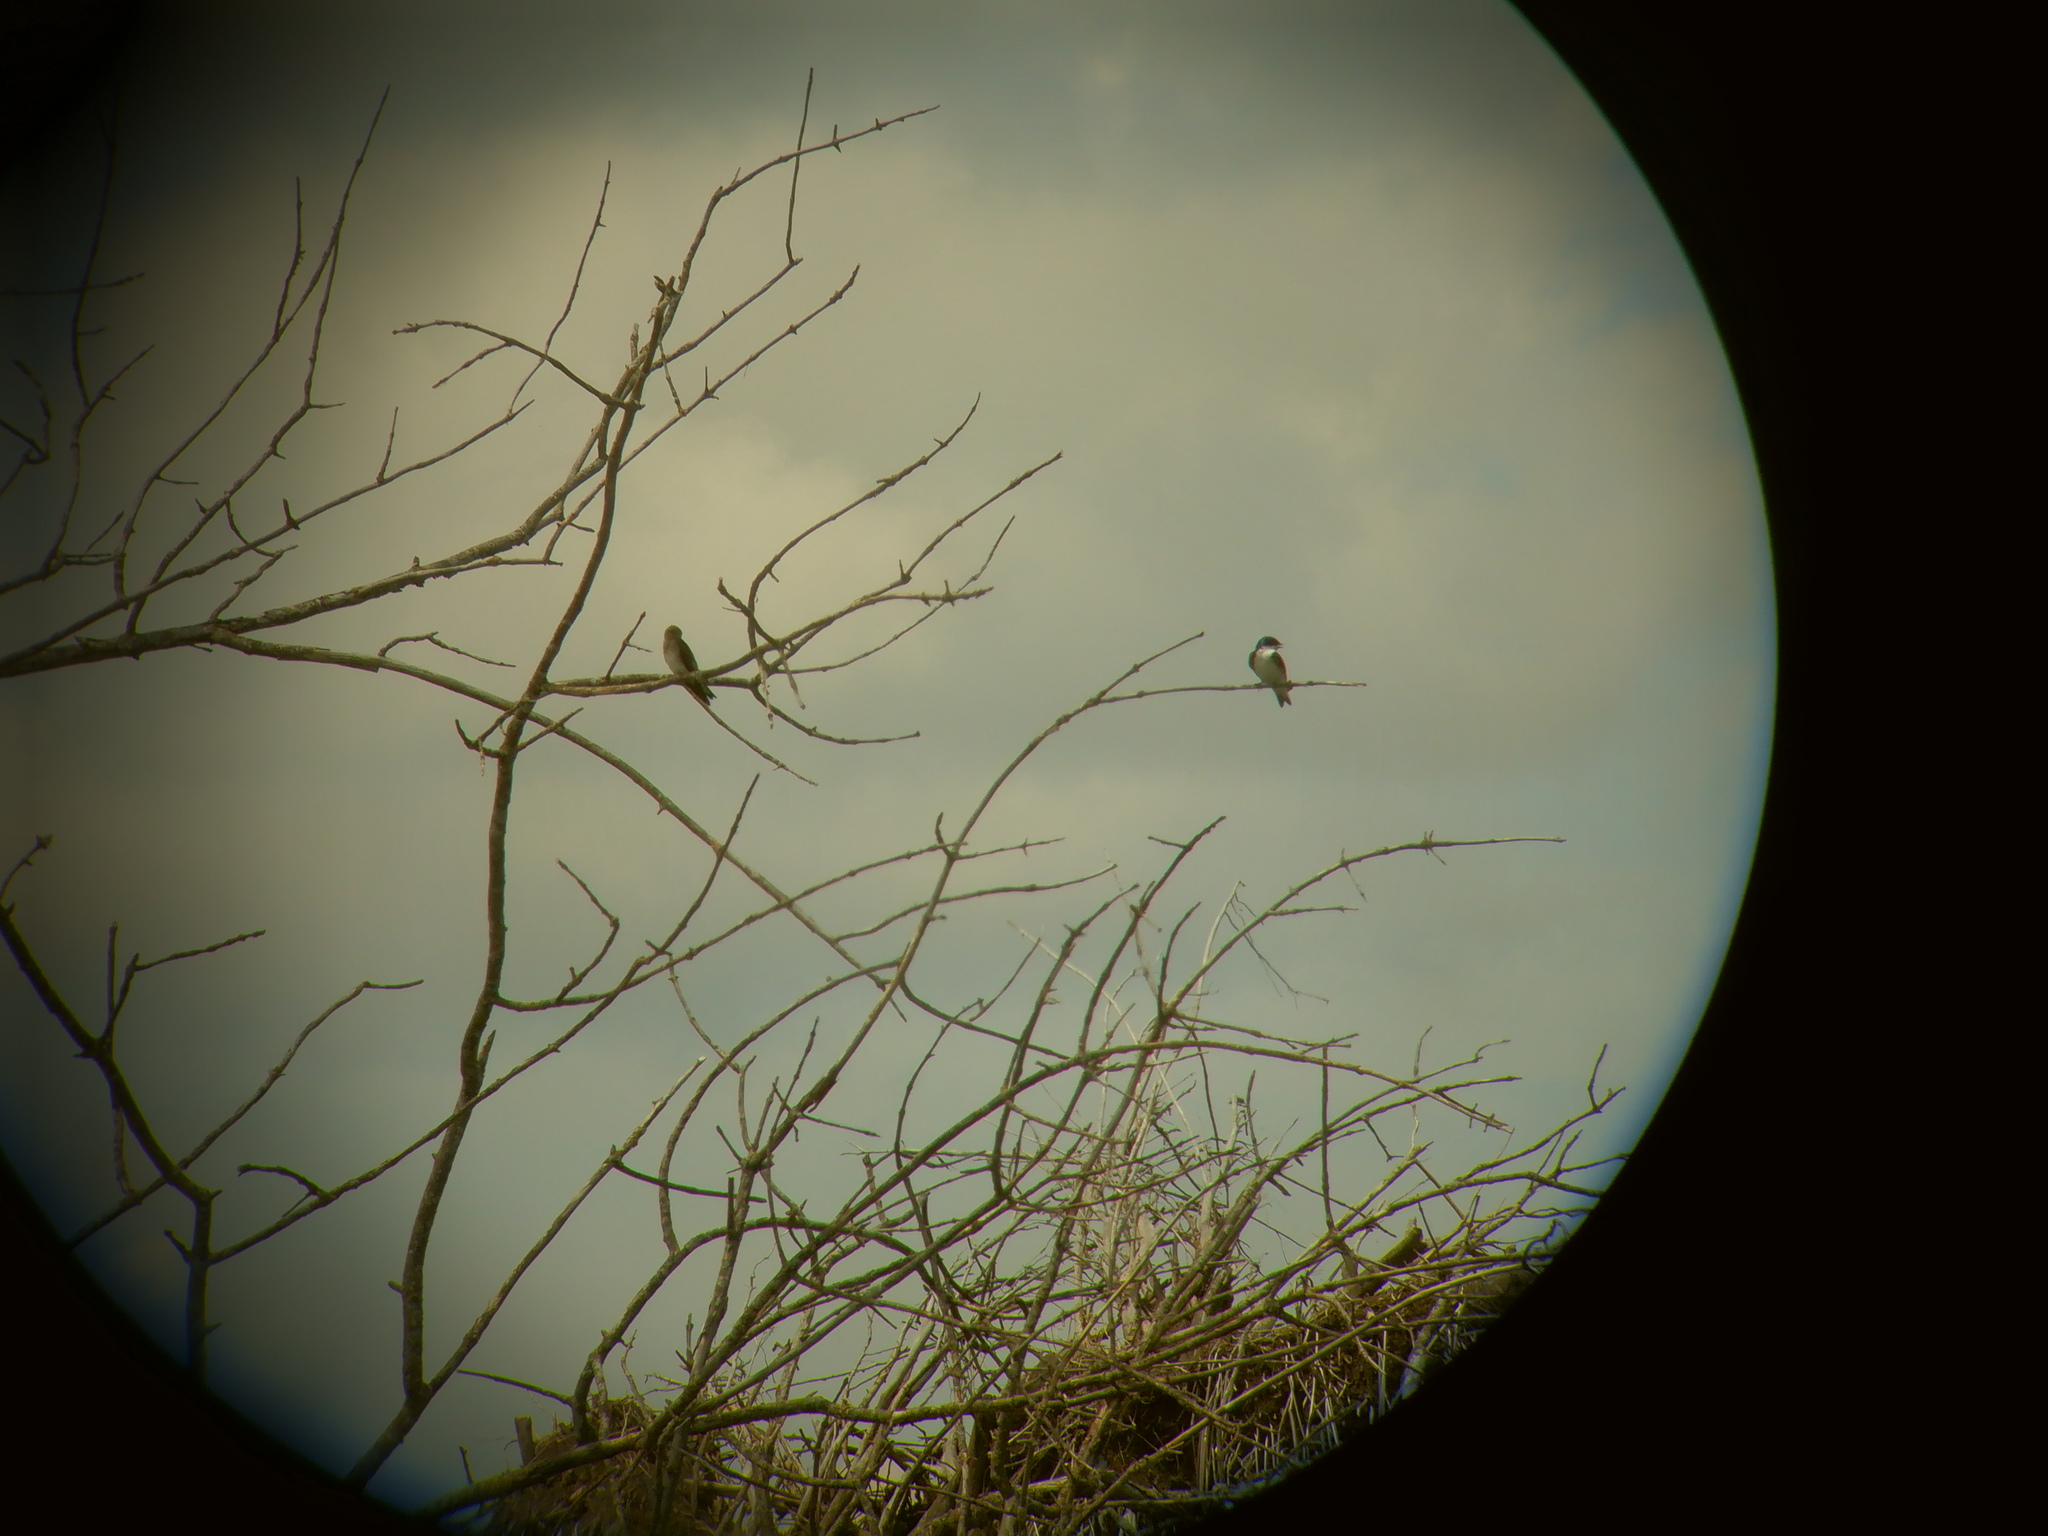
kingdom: Animalia
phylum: Chordata
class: Aves
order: Passeriformes
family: Hirundinidae
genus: Stelgidopteryx
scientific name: Stelgidopteryx serripennis
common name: Northern rough-winged swallow
